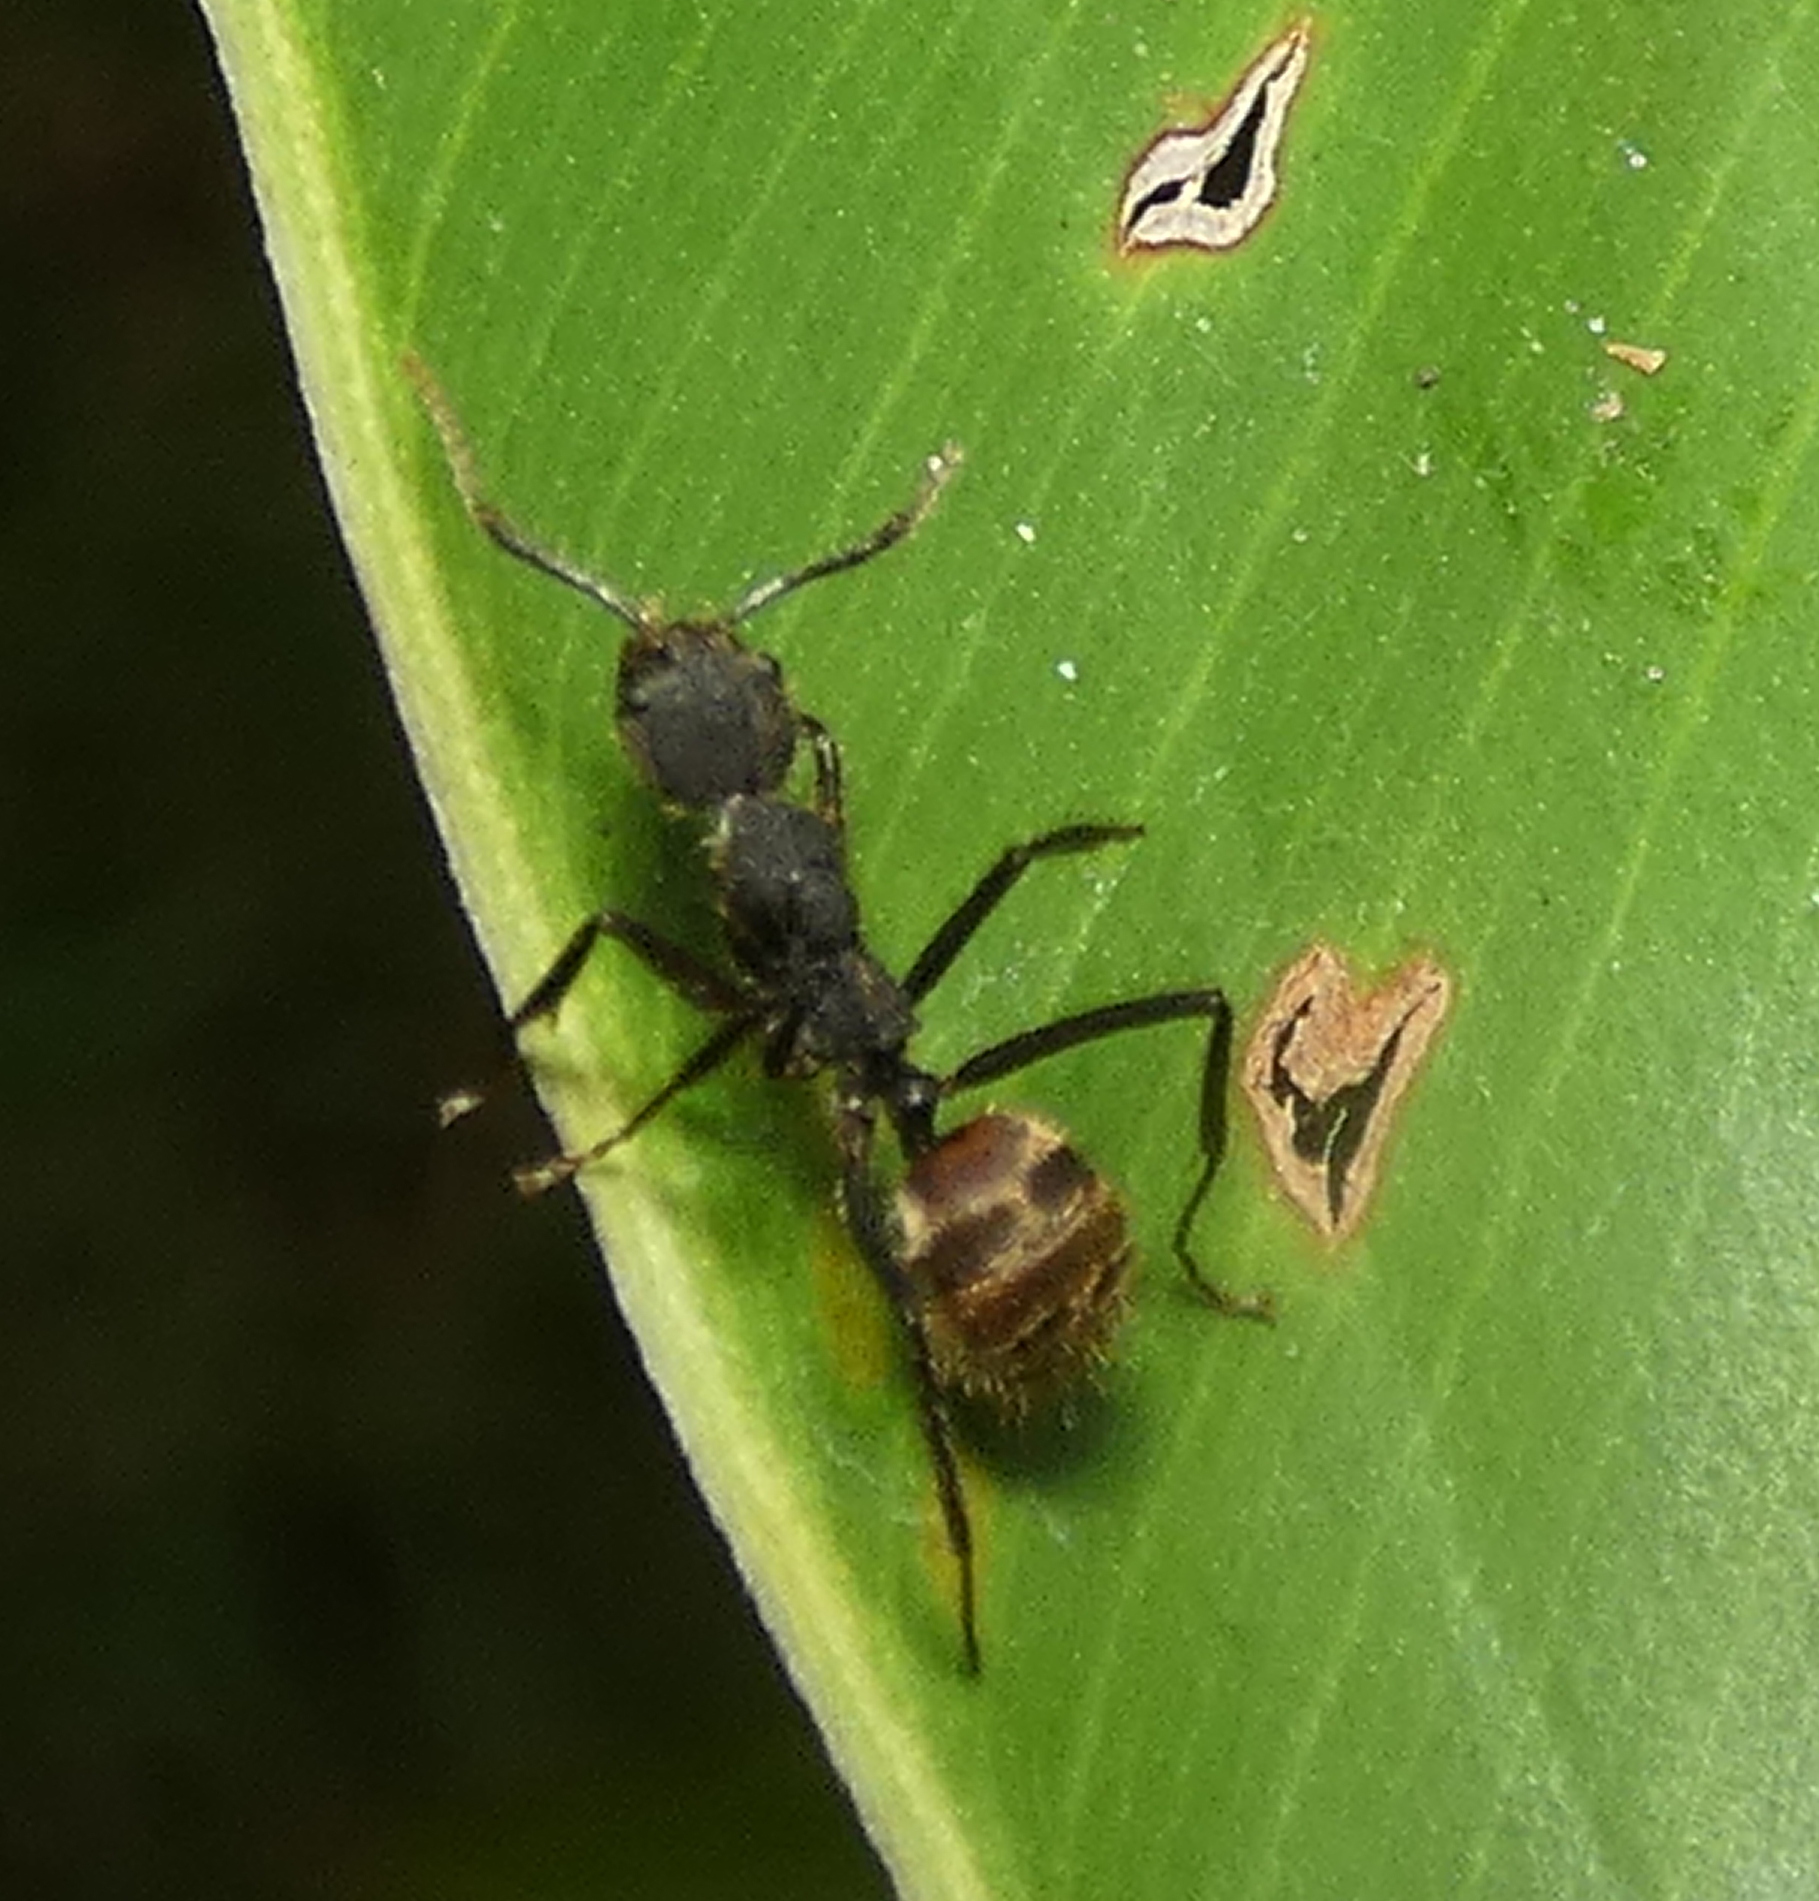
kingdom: Animalia
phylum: Arthropoda
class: Insecta
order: Hymenoptera
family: Formicidae
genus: Dolichoderus
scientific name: Dolichoderus bidens
